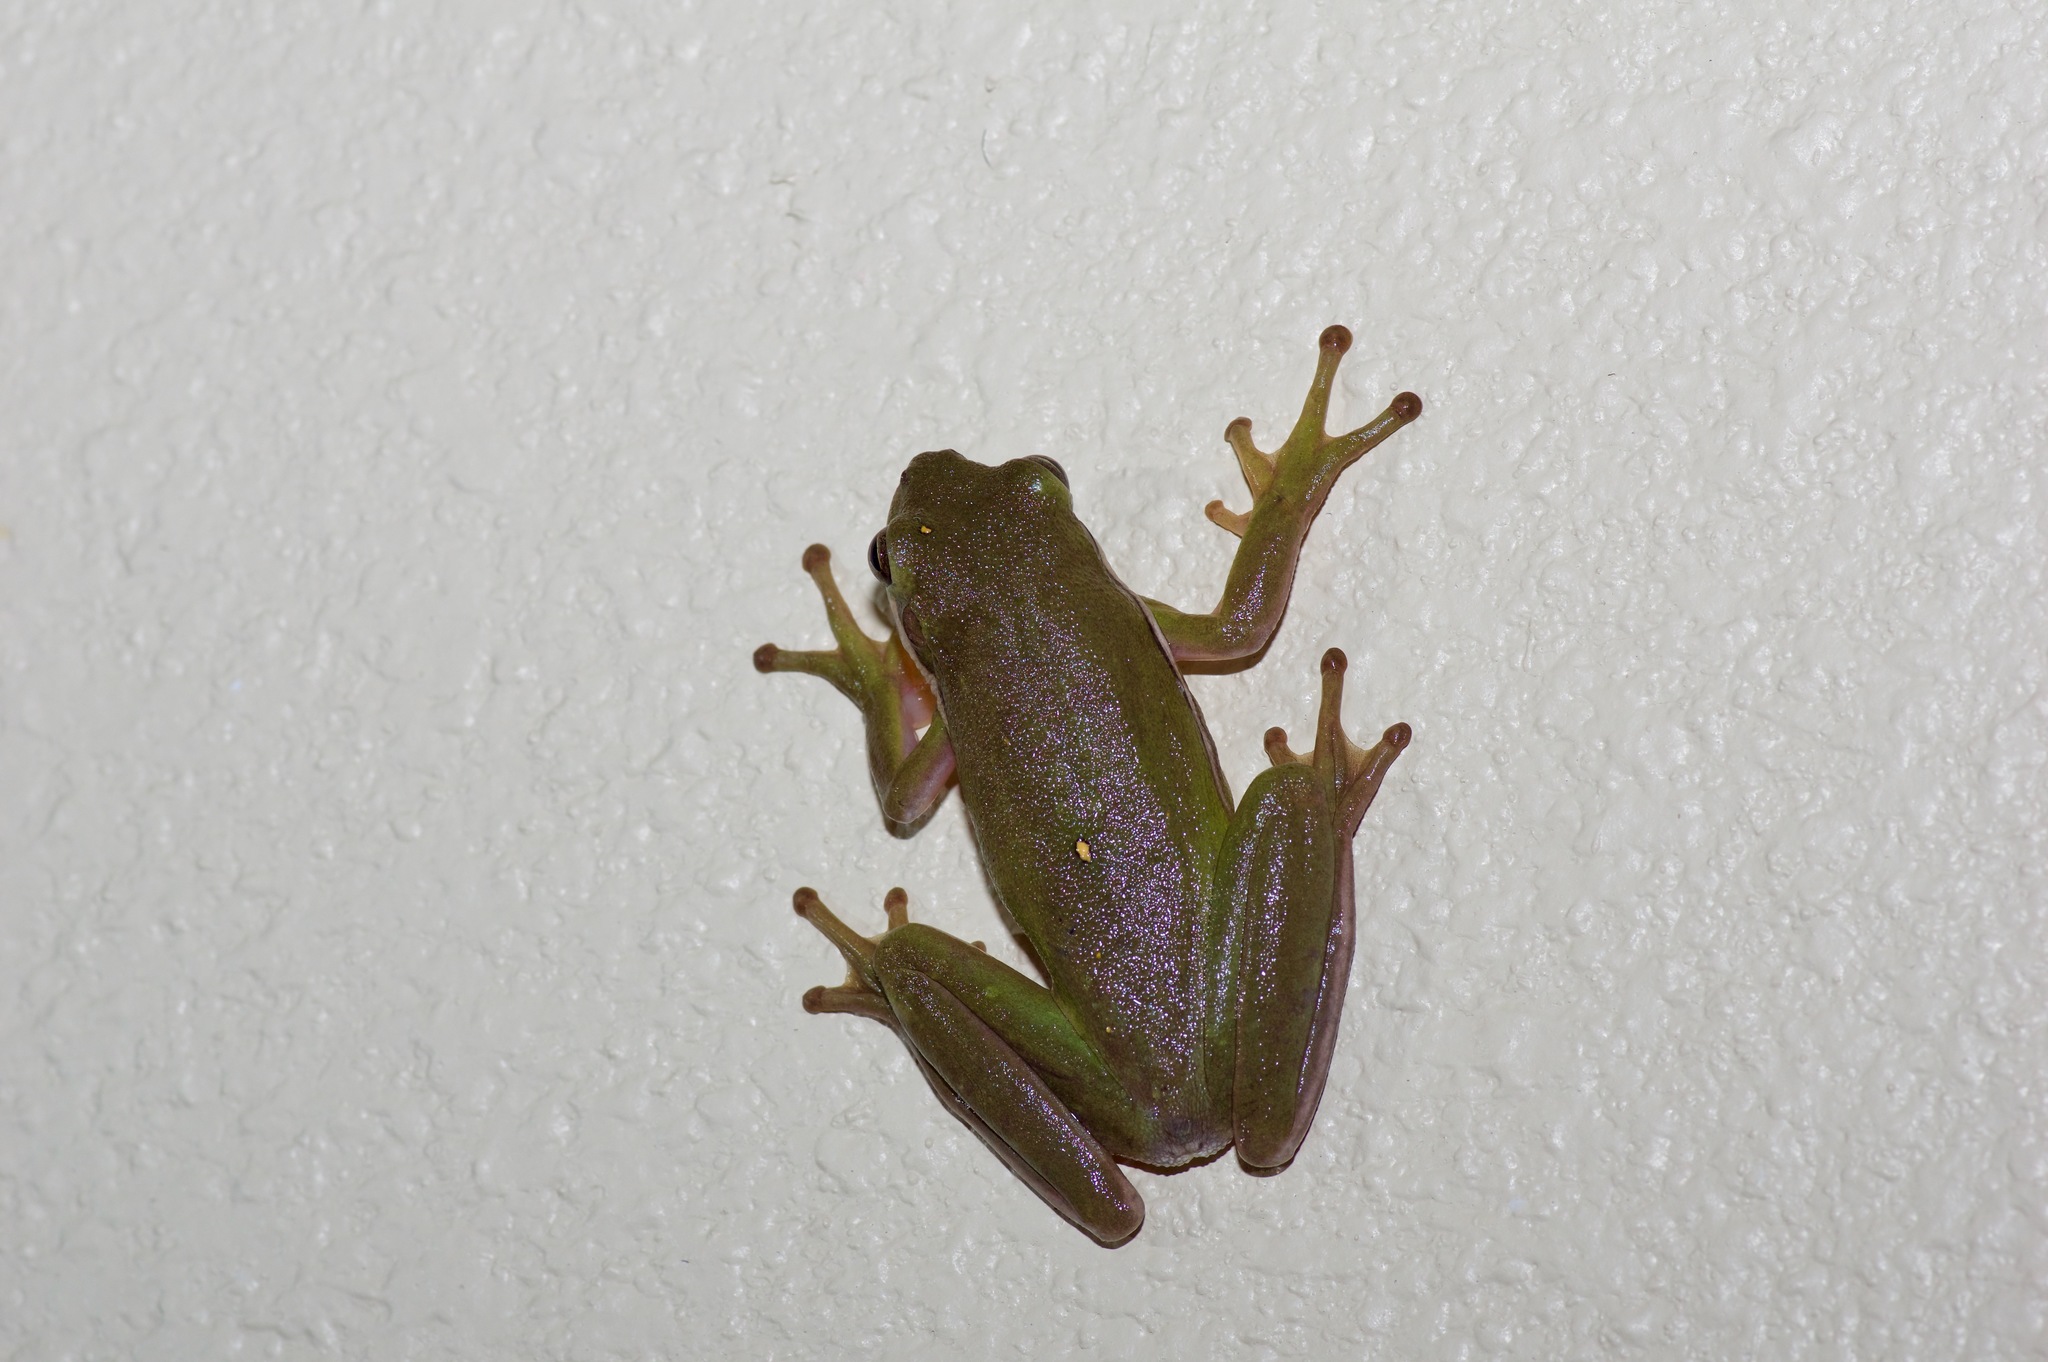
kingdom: Animalia
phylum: Chordata
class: Amphibia
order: Anura
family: Hylidae
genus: Dryophytes
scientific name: Dryophytes cinereus
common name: Green treefrog
